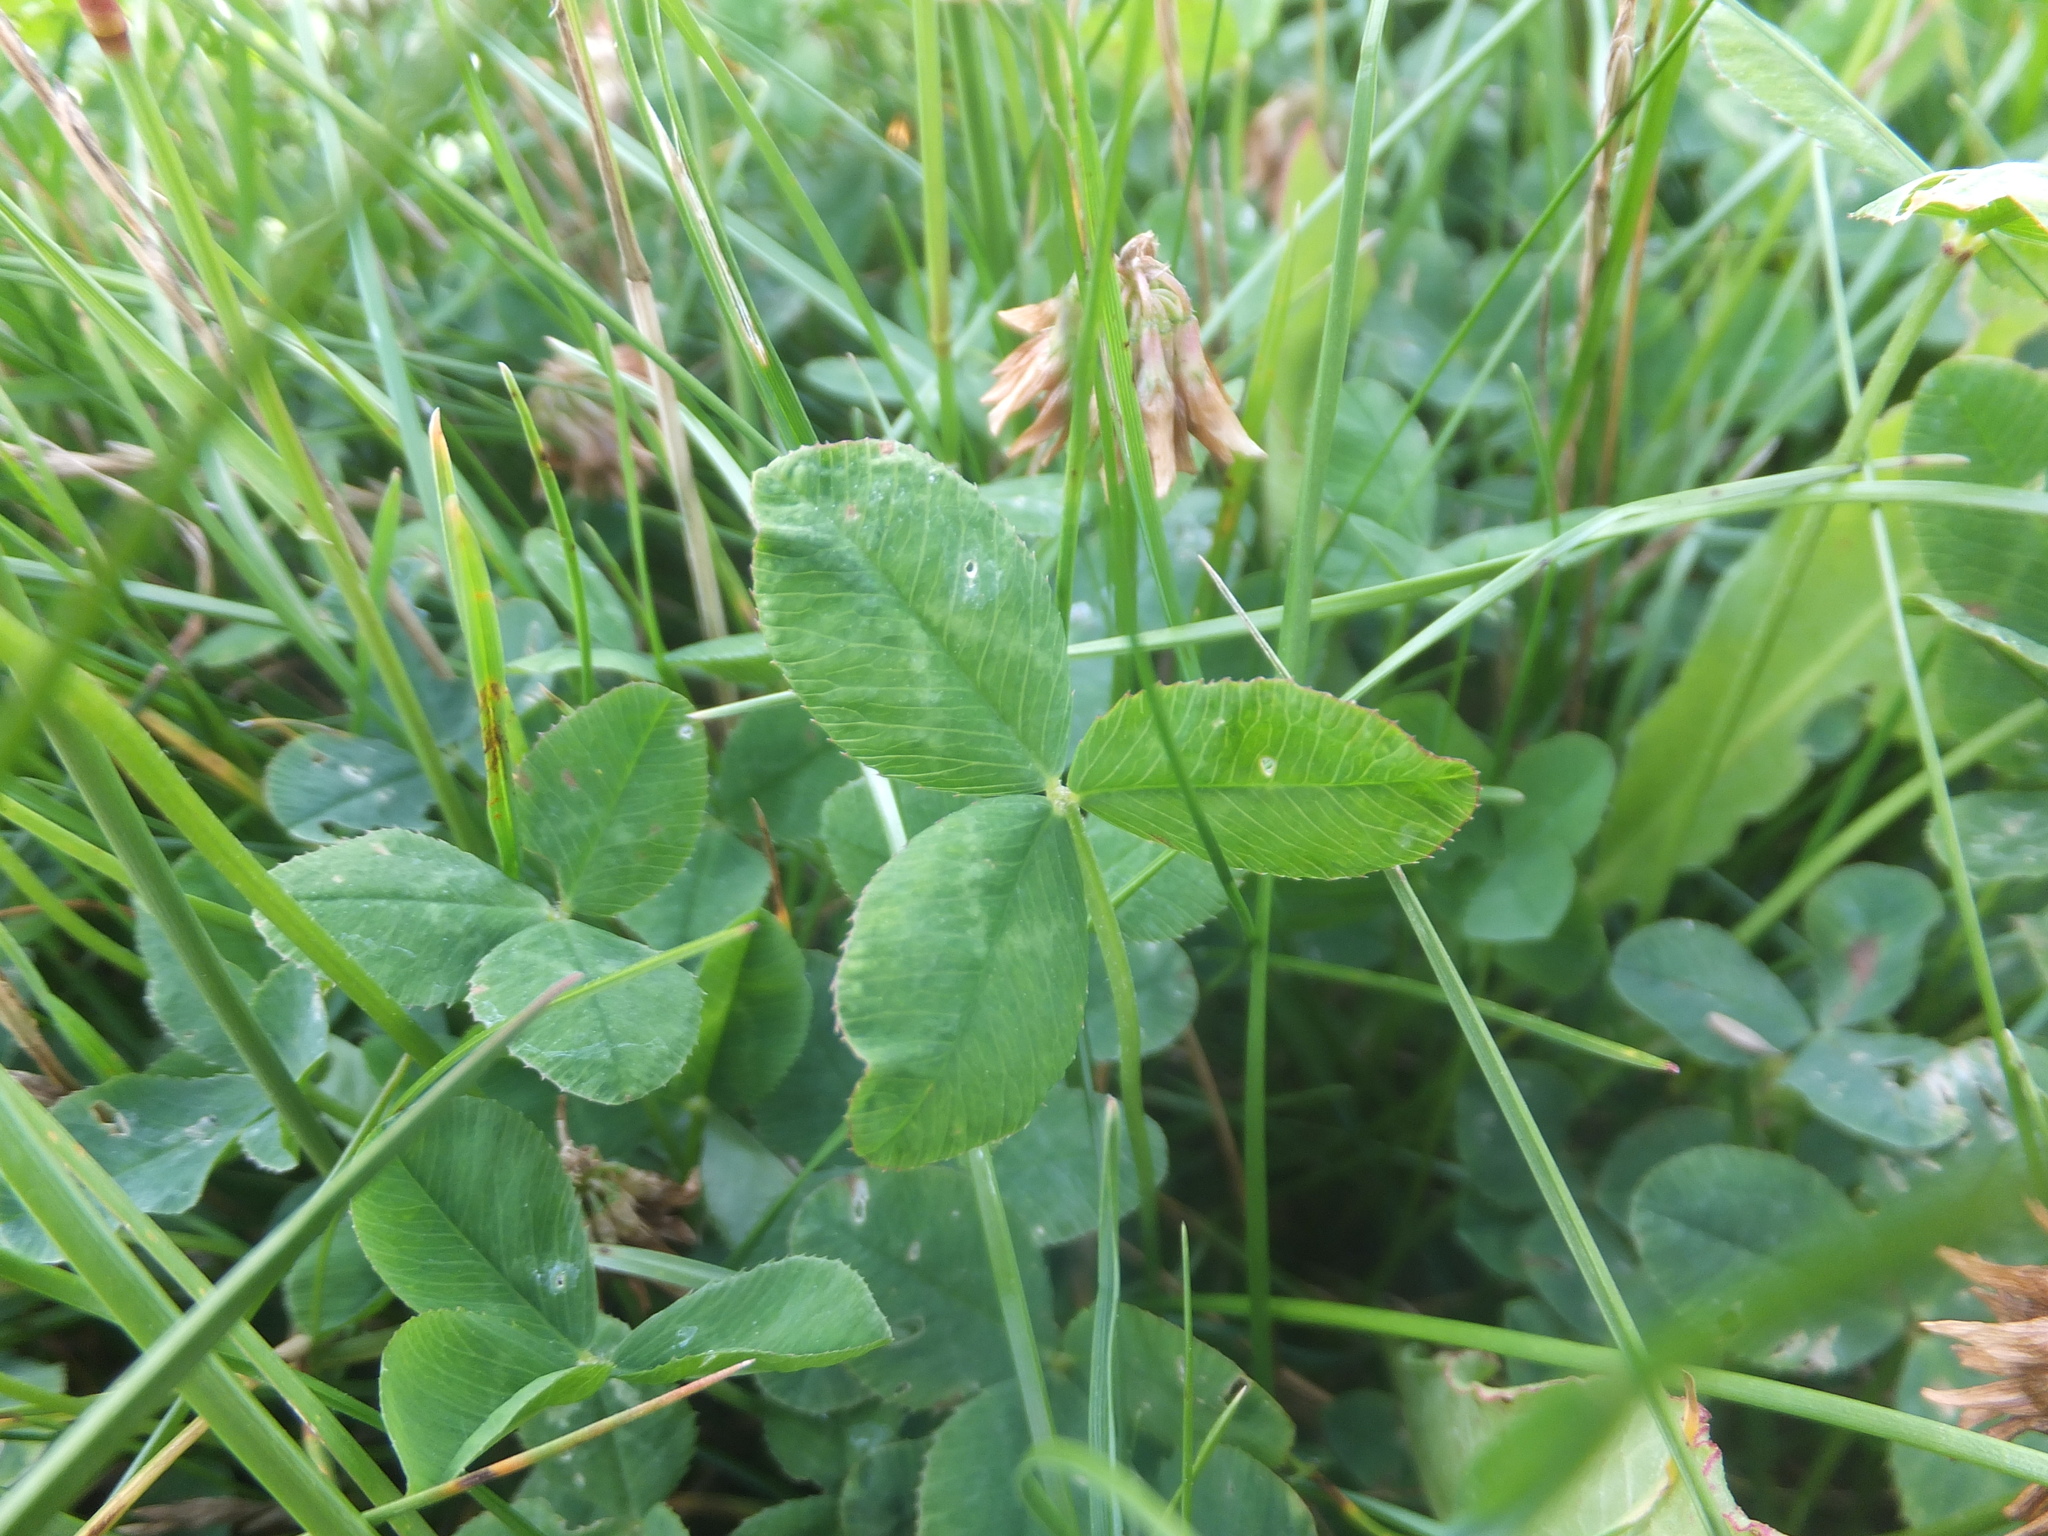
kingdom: Plantae
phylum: Tracheophyta
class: Magnoliopsida
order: Fabales
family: Fabaceae
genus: Trifolium
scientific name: Trifolium repens
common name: White clover
